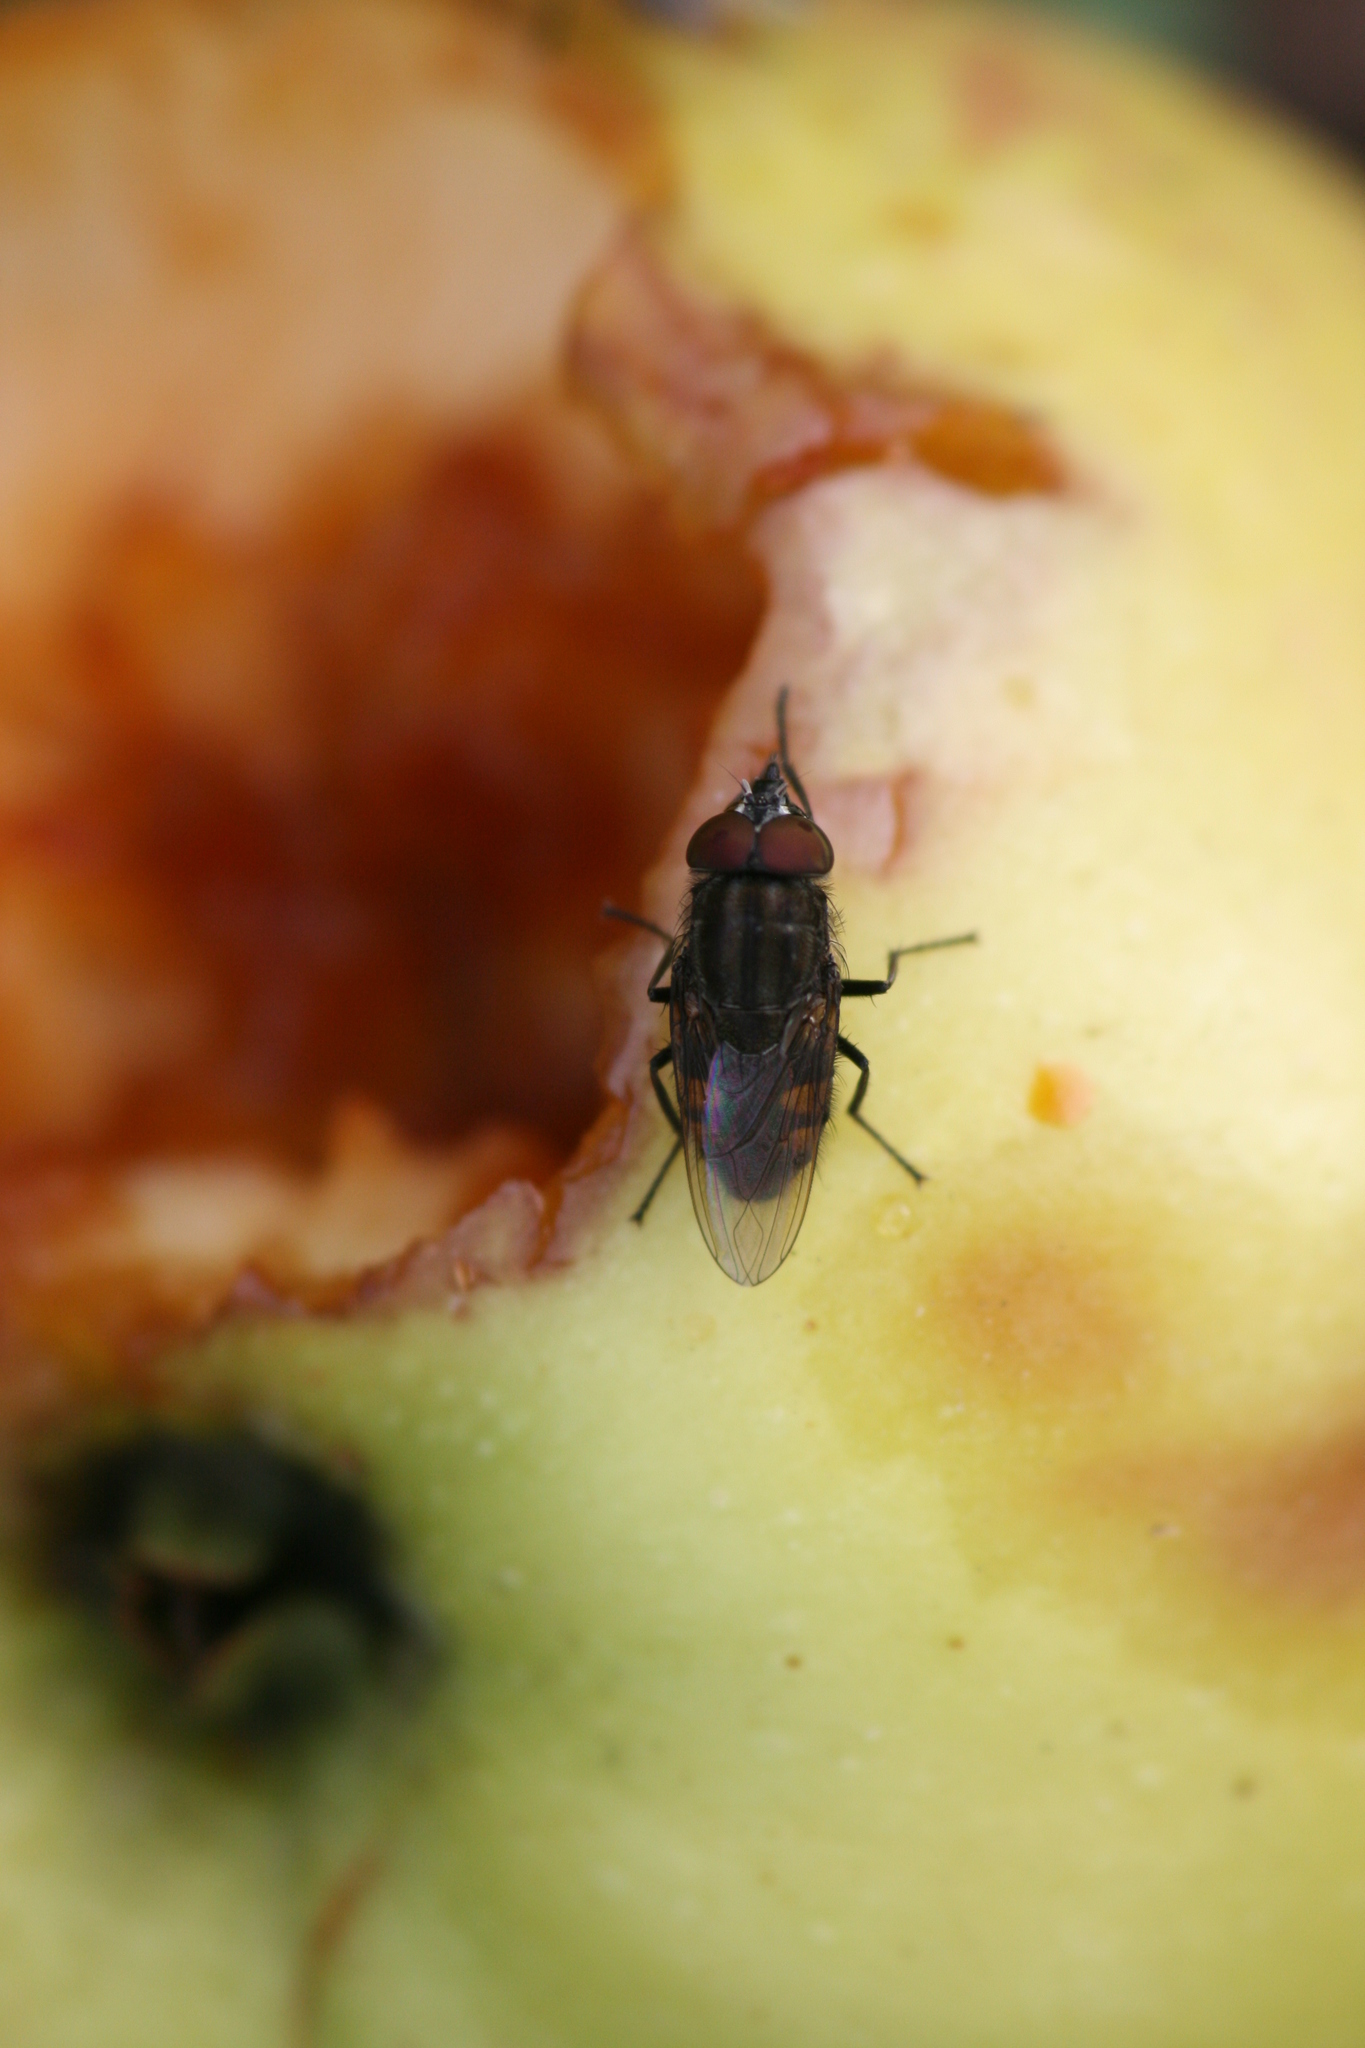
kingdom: Animalia
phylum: Arthropoda
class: Insecta
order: Diptera
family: Calliphoridae
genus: Stomorhina
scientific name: Stomorhina lunata
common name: Locust blowfly
